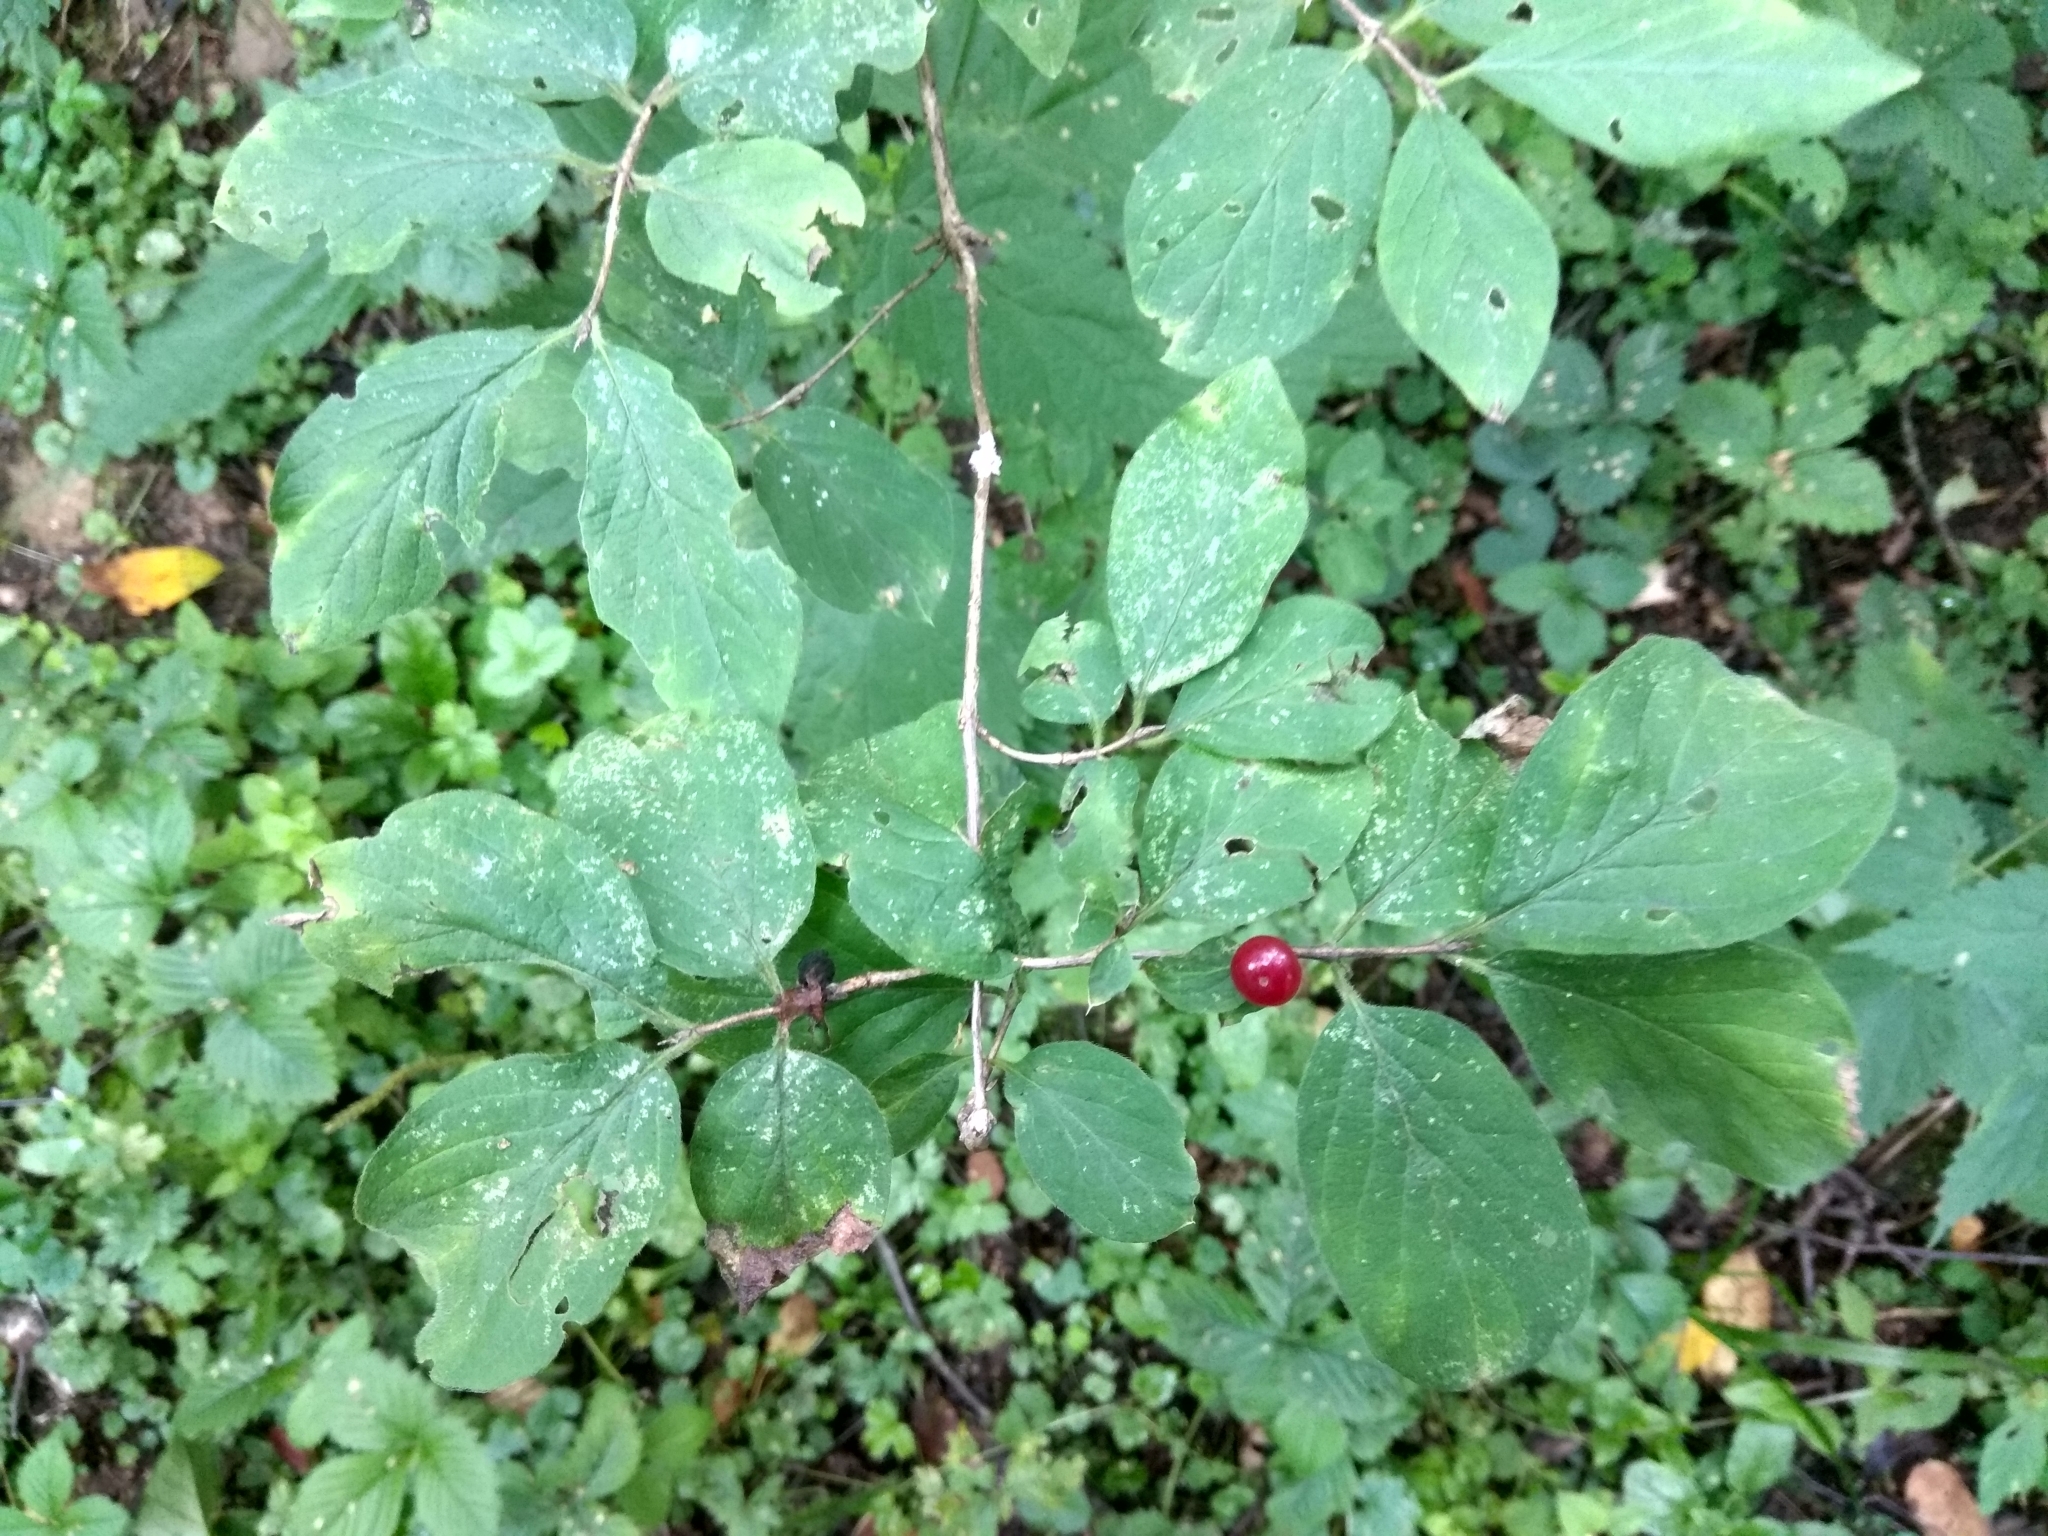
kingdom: Plantae
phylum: Tracheophyta
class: Magnoliopsida
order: Dipsacales
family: Caprifoliaceae
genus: Lonicera
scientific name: Lonicera xylosteum
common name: Fly honeysuckle
